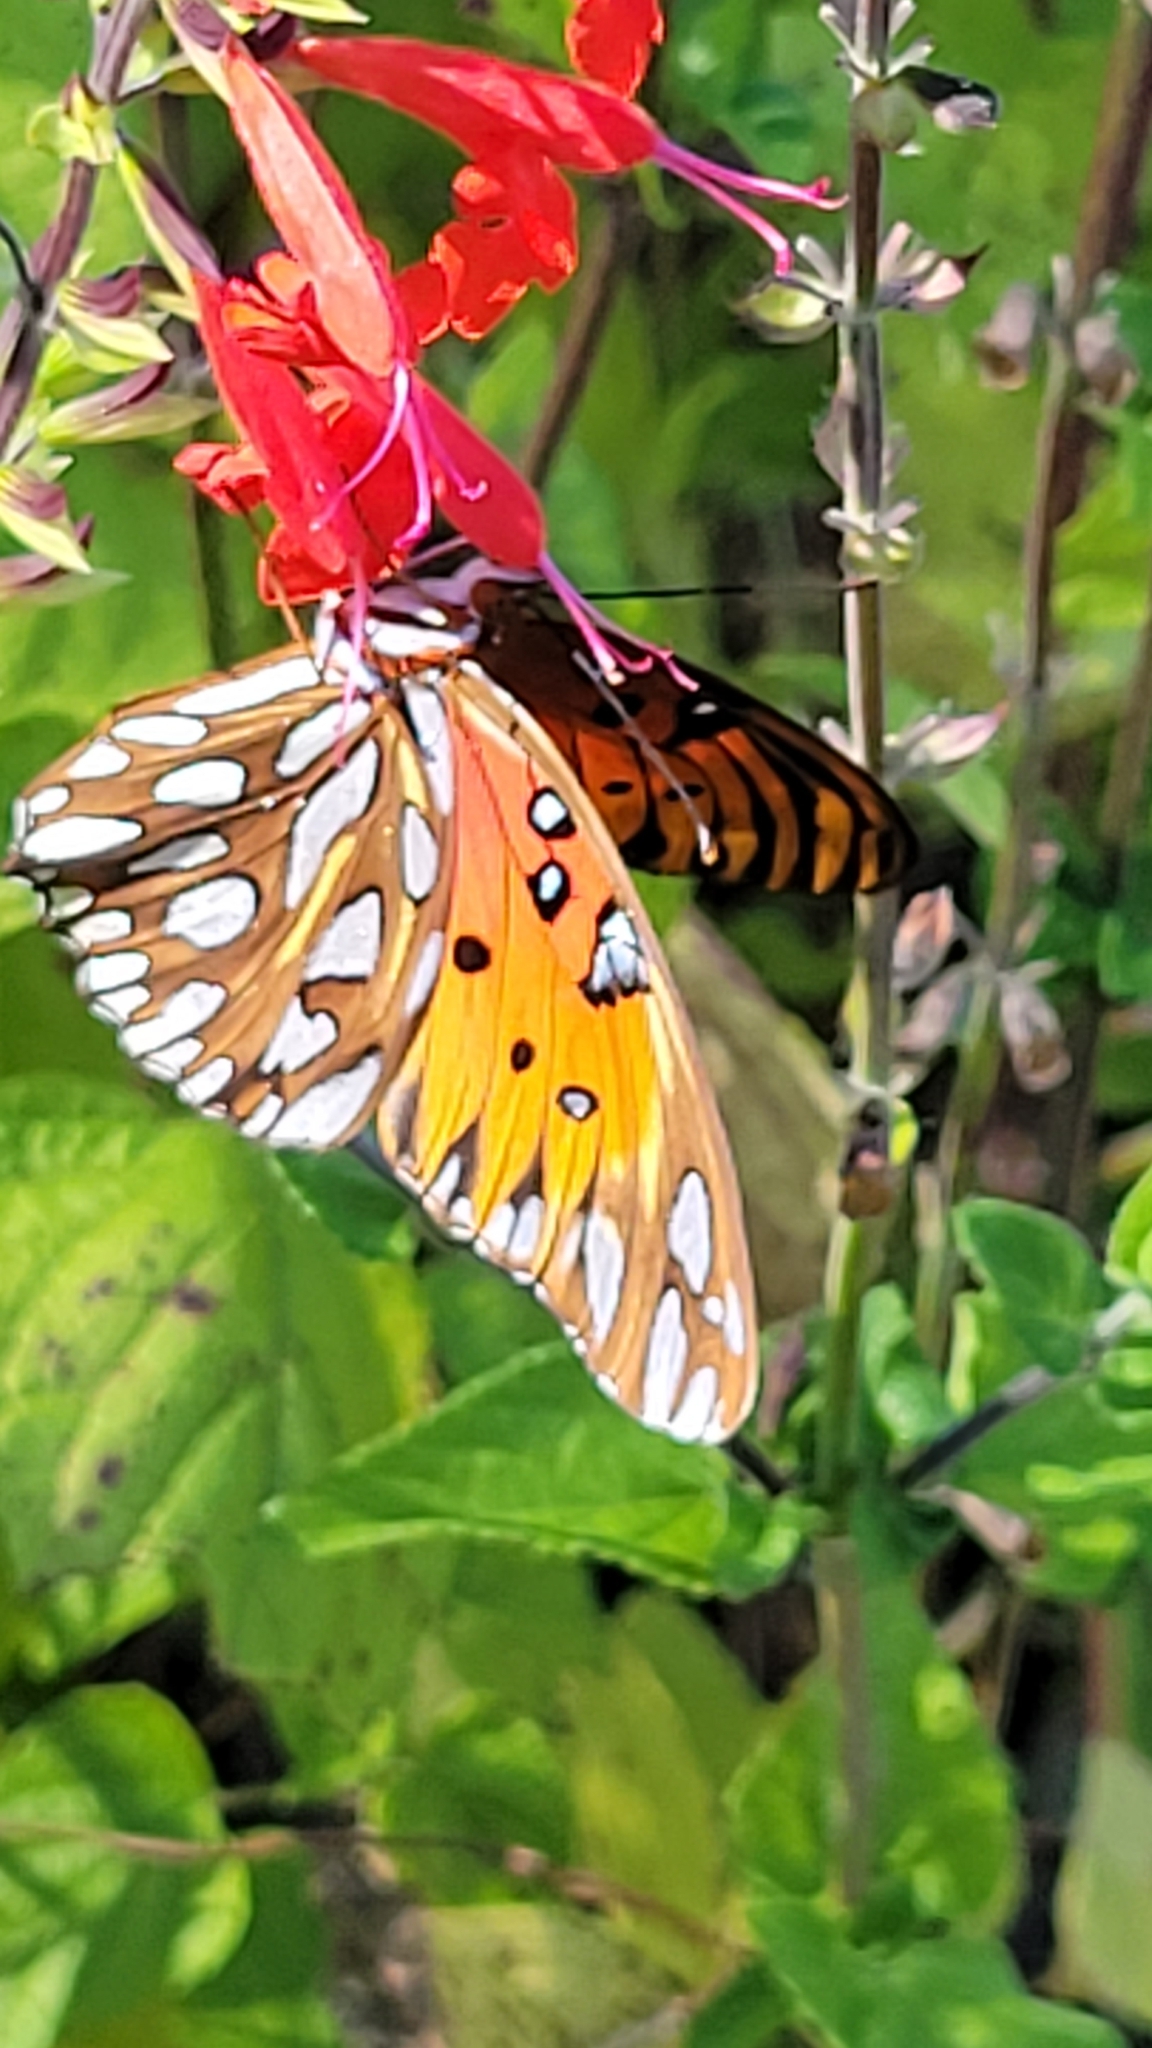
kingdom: Animalia
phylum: Arthropoda
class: Insecta
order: Lepidoptera
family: Nymphalidae
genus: Dione
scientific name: Dione vanillae
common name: Gulf fritillary
